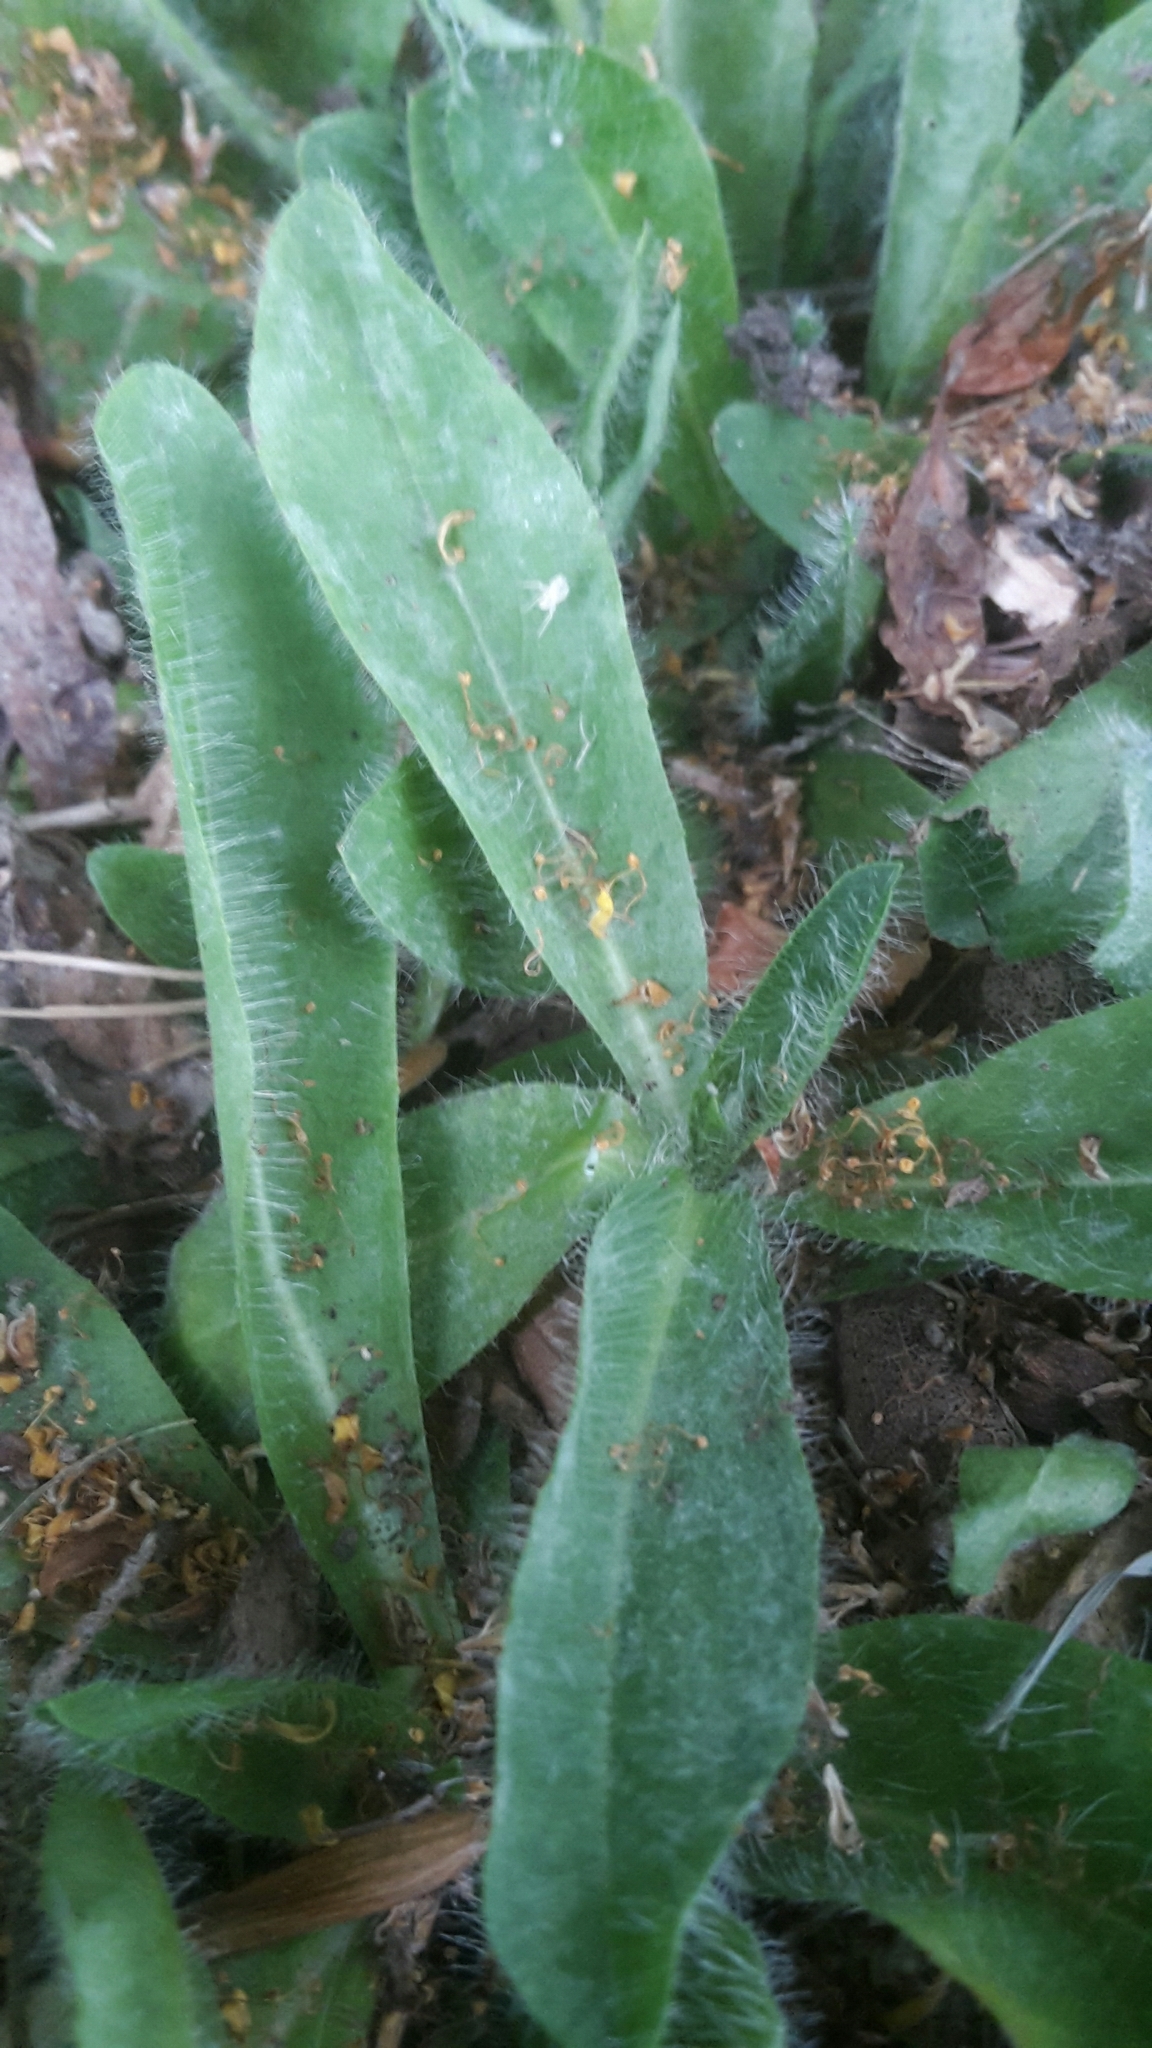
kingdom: Plantae
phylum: Tracheophyta
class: Magnoliopsida
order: Asterales
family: Asteraceae
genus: Pilosella
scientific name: Pilosella aurantiaca
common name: Fox-and-cubs
